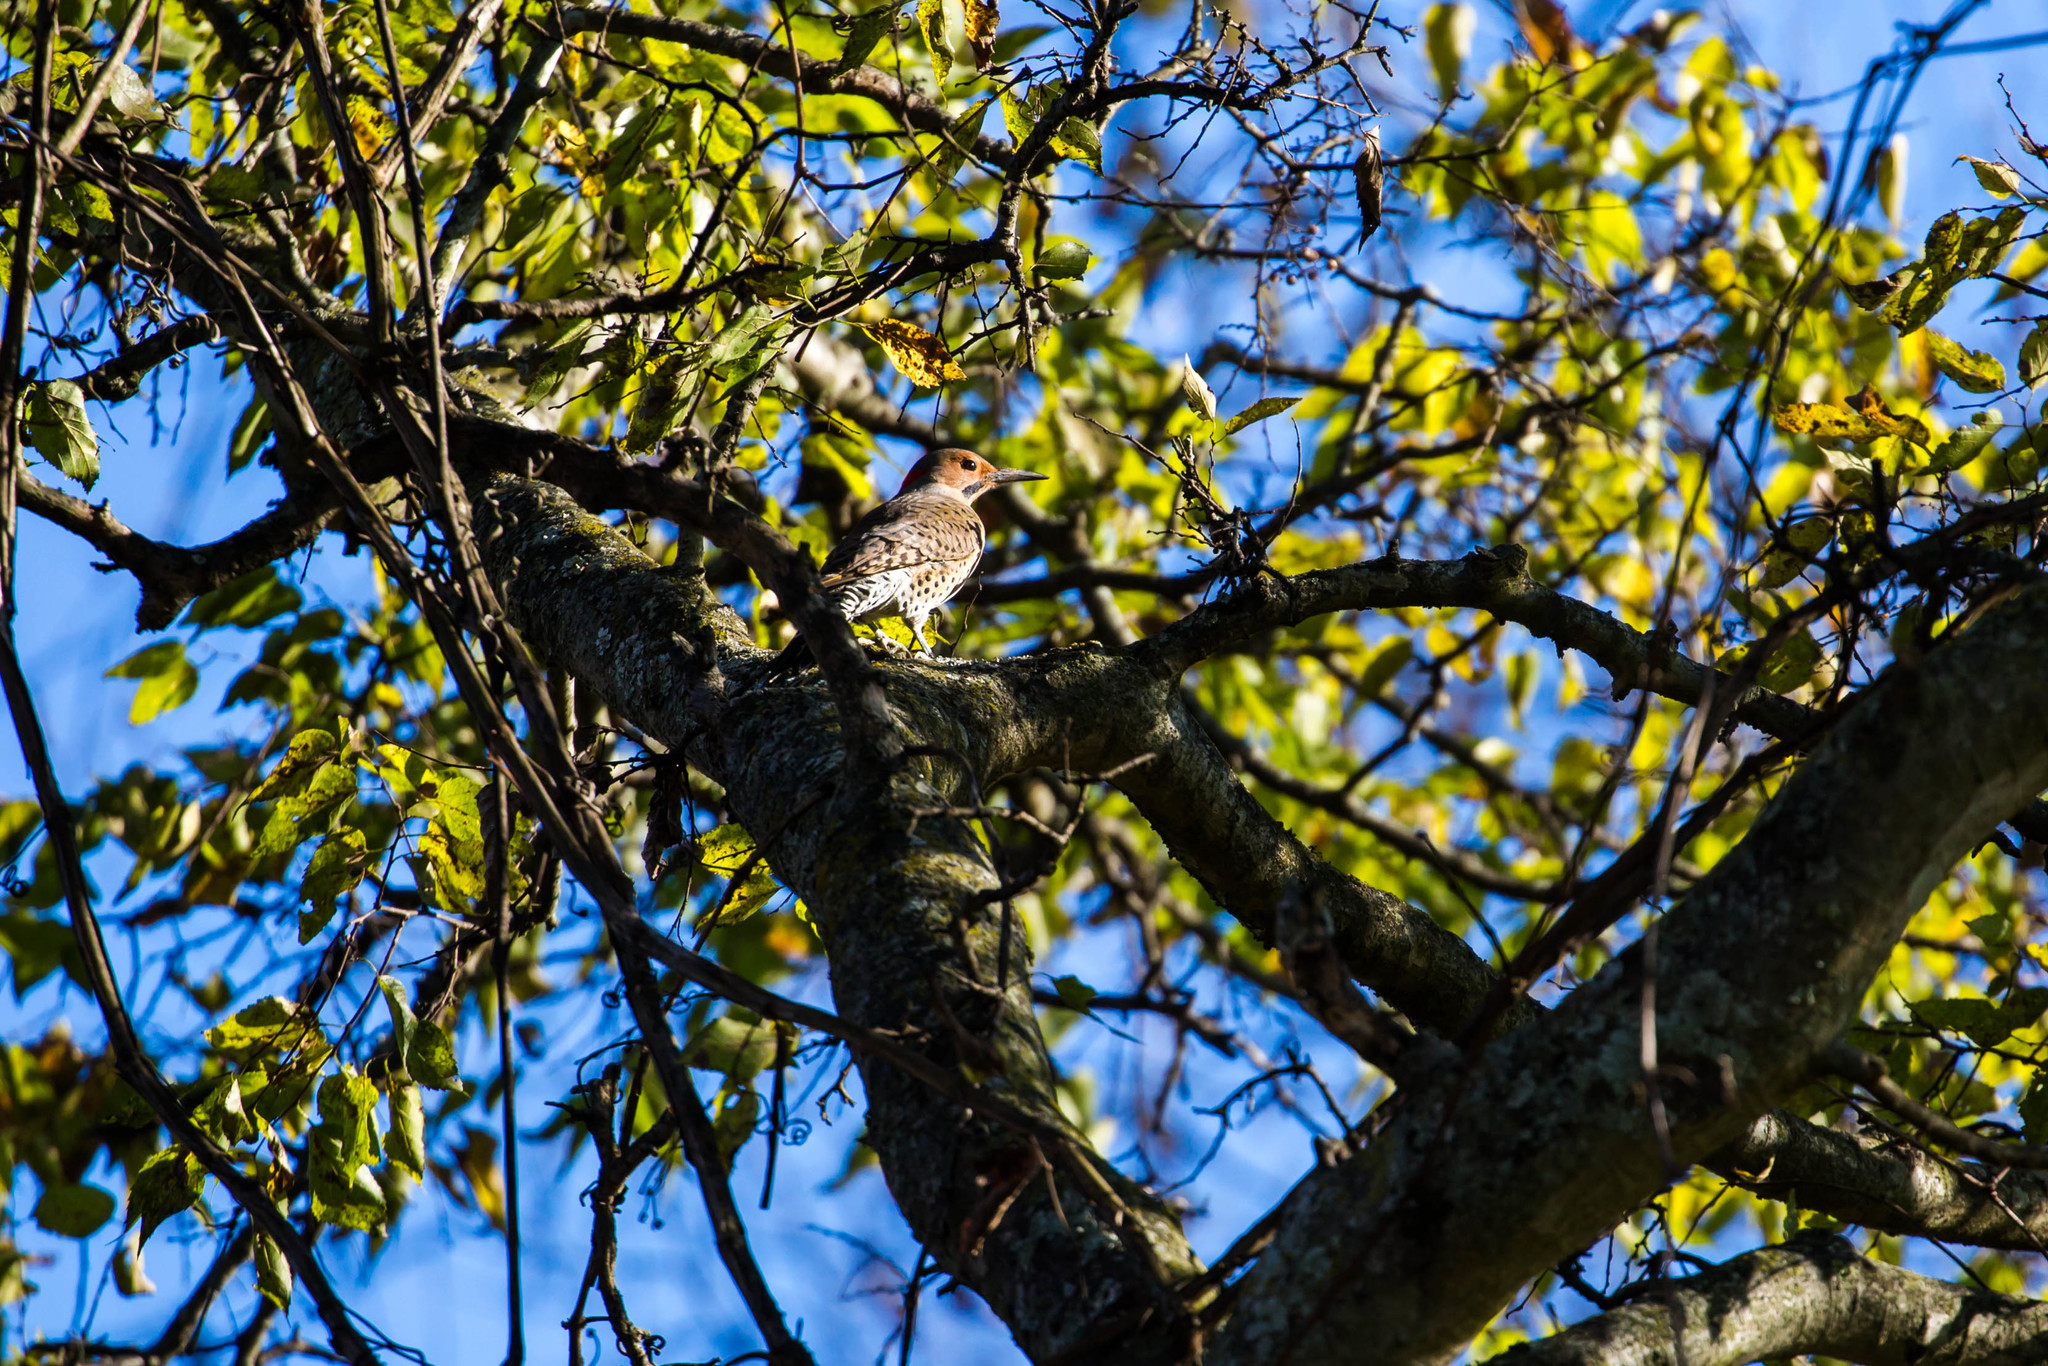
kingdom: Animalia
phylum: Chordata
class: Aves
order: Piciformes
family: Picidae
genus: Colaptes
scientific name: Colaptes auratus
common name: Northern flicker
